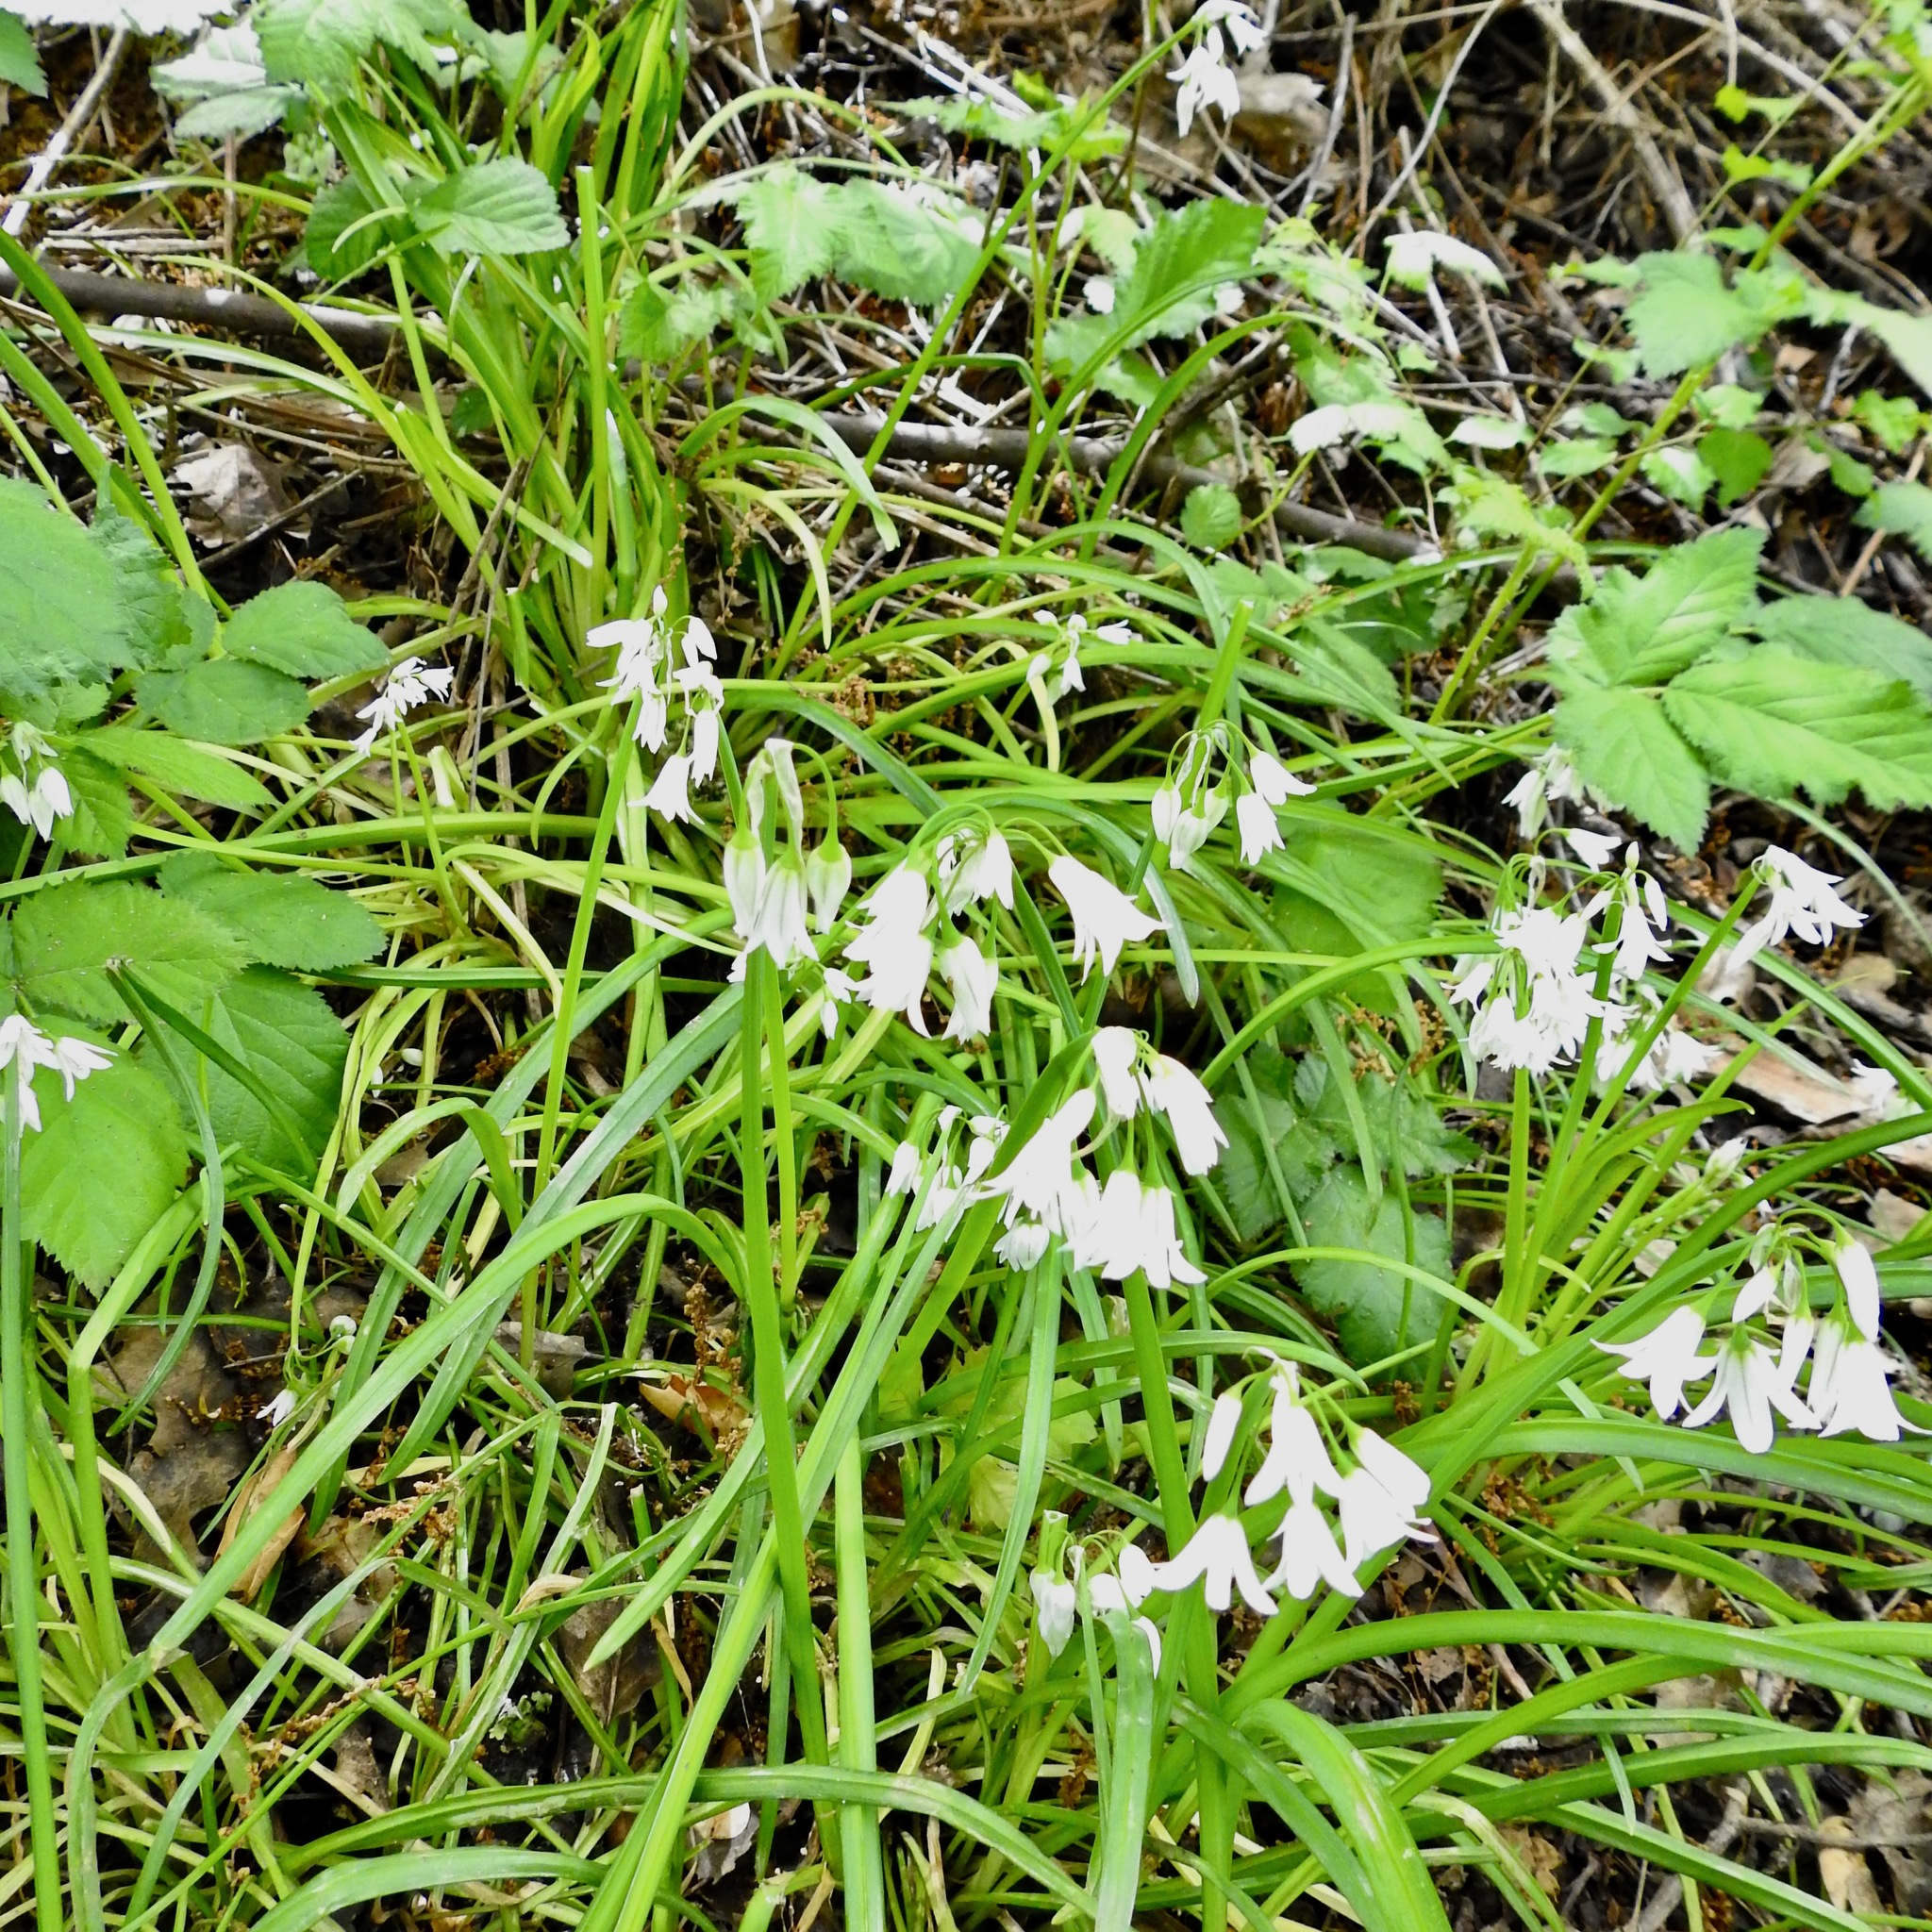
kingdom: Plantae
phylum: Tracheophyta
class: Liliopsida
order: Asparagales
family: Amaryllidaceae
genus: Allium
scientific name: Allium triquetrum
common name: Three-cornered garlic
